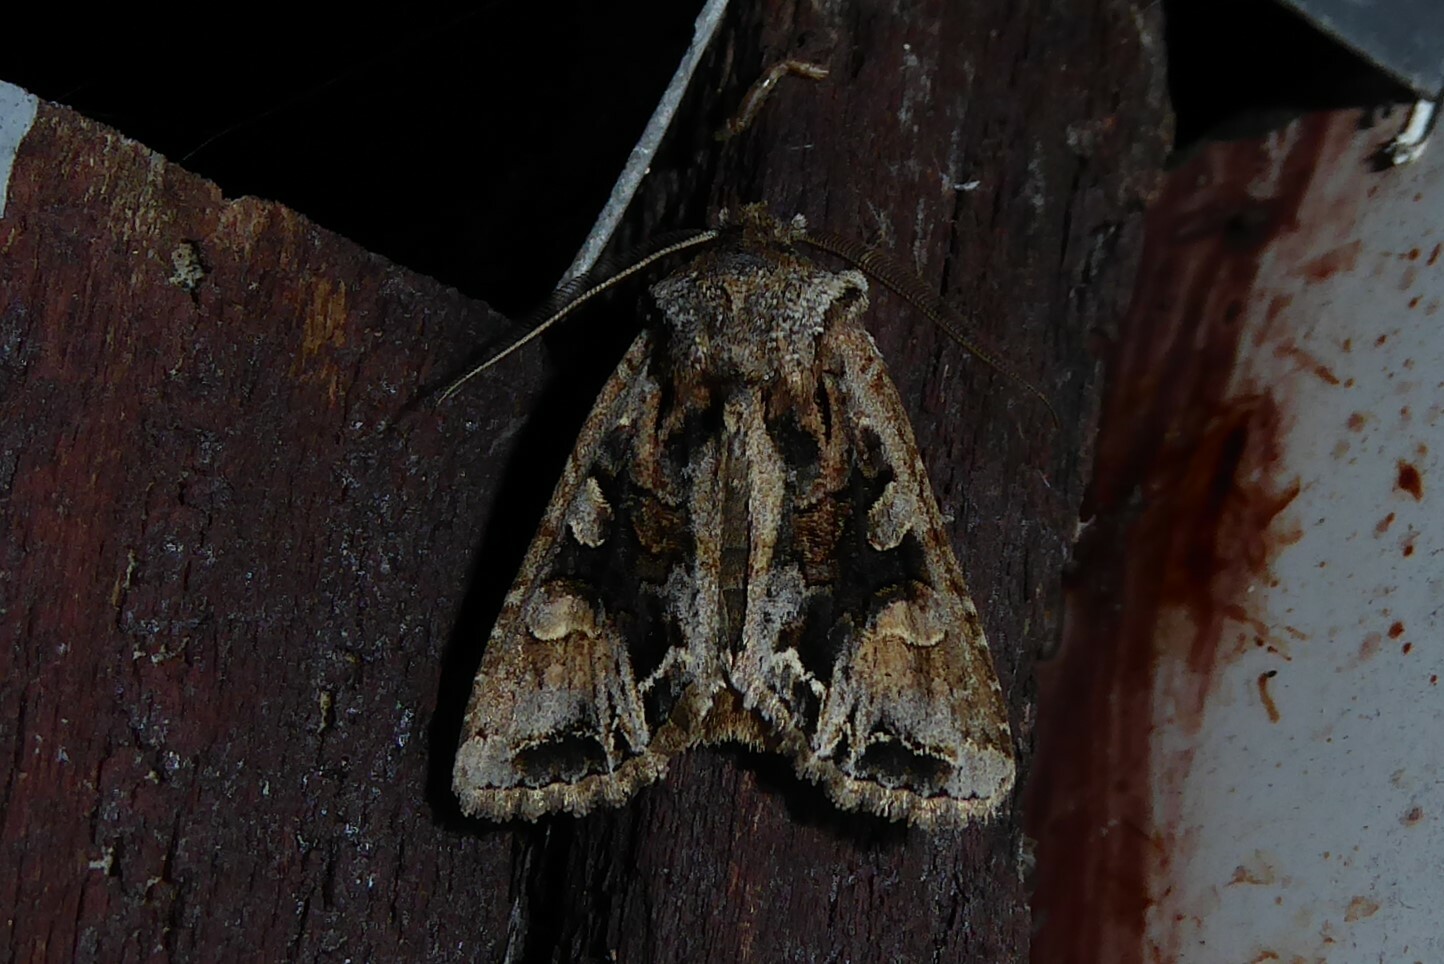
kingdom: Animalia
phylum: Arthropoda
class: Insecta
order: Lepidoptera
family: Noctuidae
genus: Ichneutica
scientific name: Ichneutica
